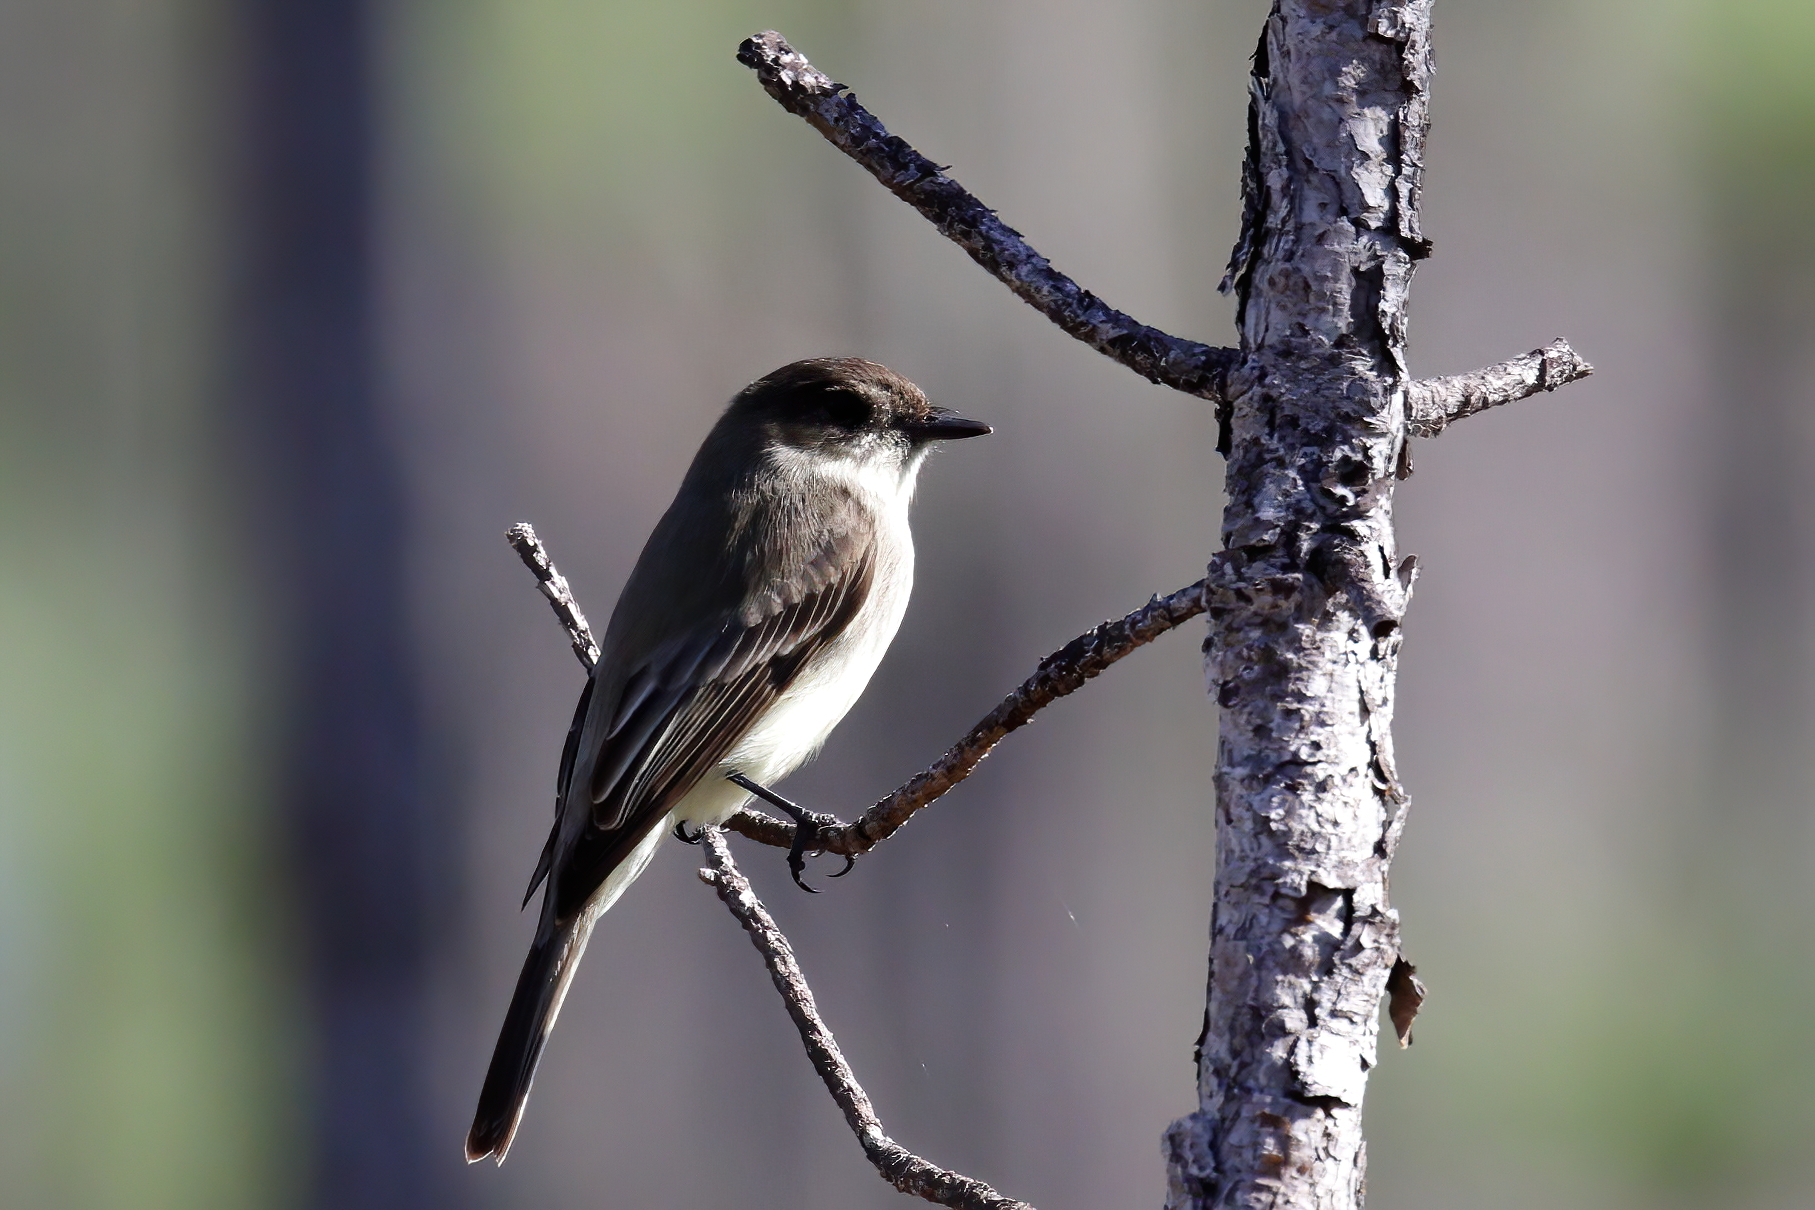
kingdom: Animalia
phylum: Chordata
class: Aves
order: Passeriformes
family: Tyrannidae
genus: Sayornis
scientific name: Sayornis phoebe
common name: Eastern phoebe
